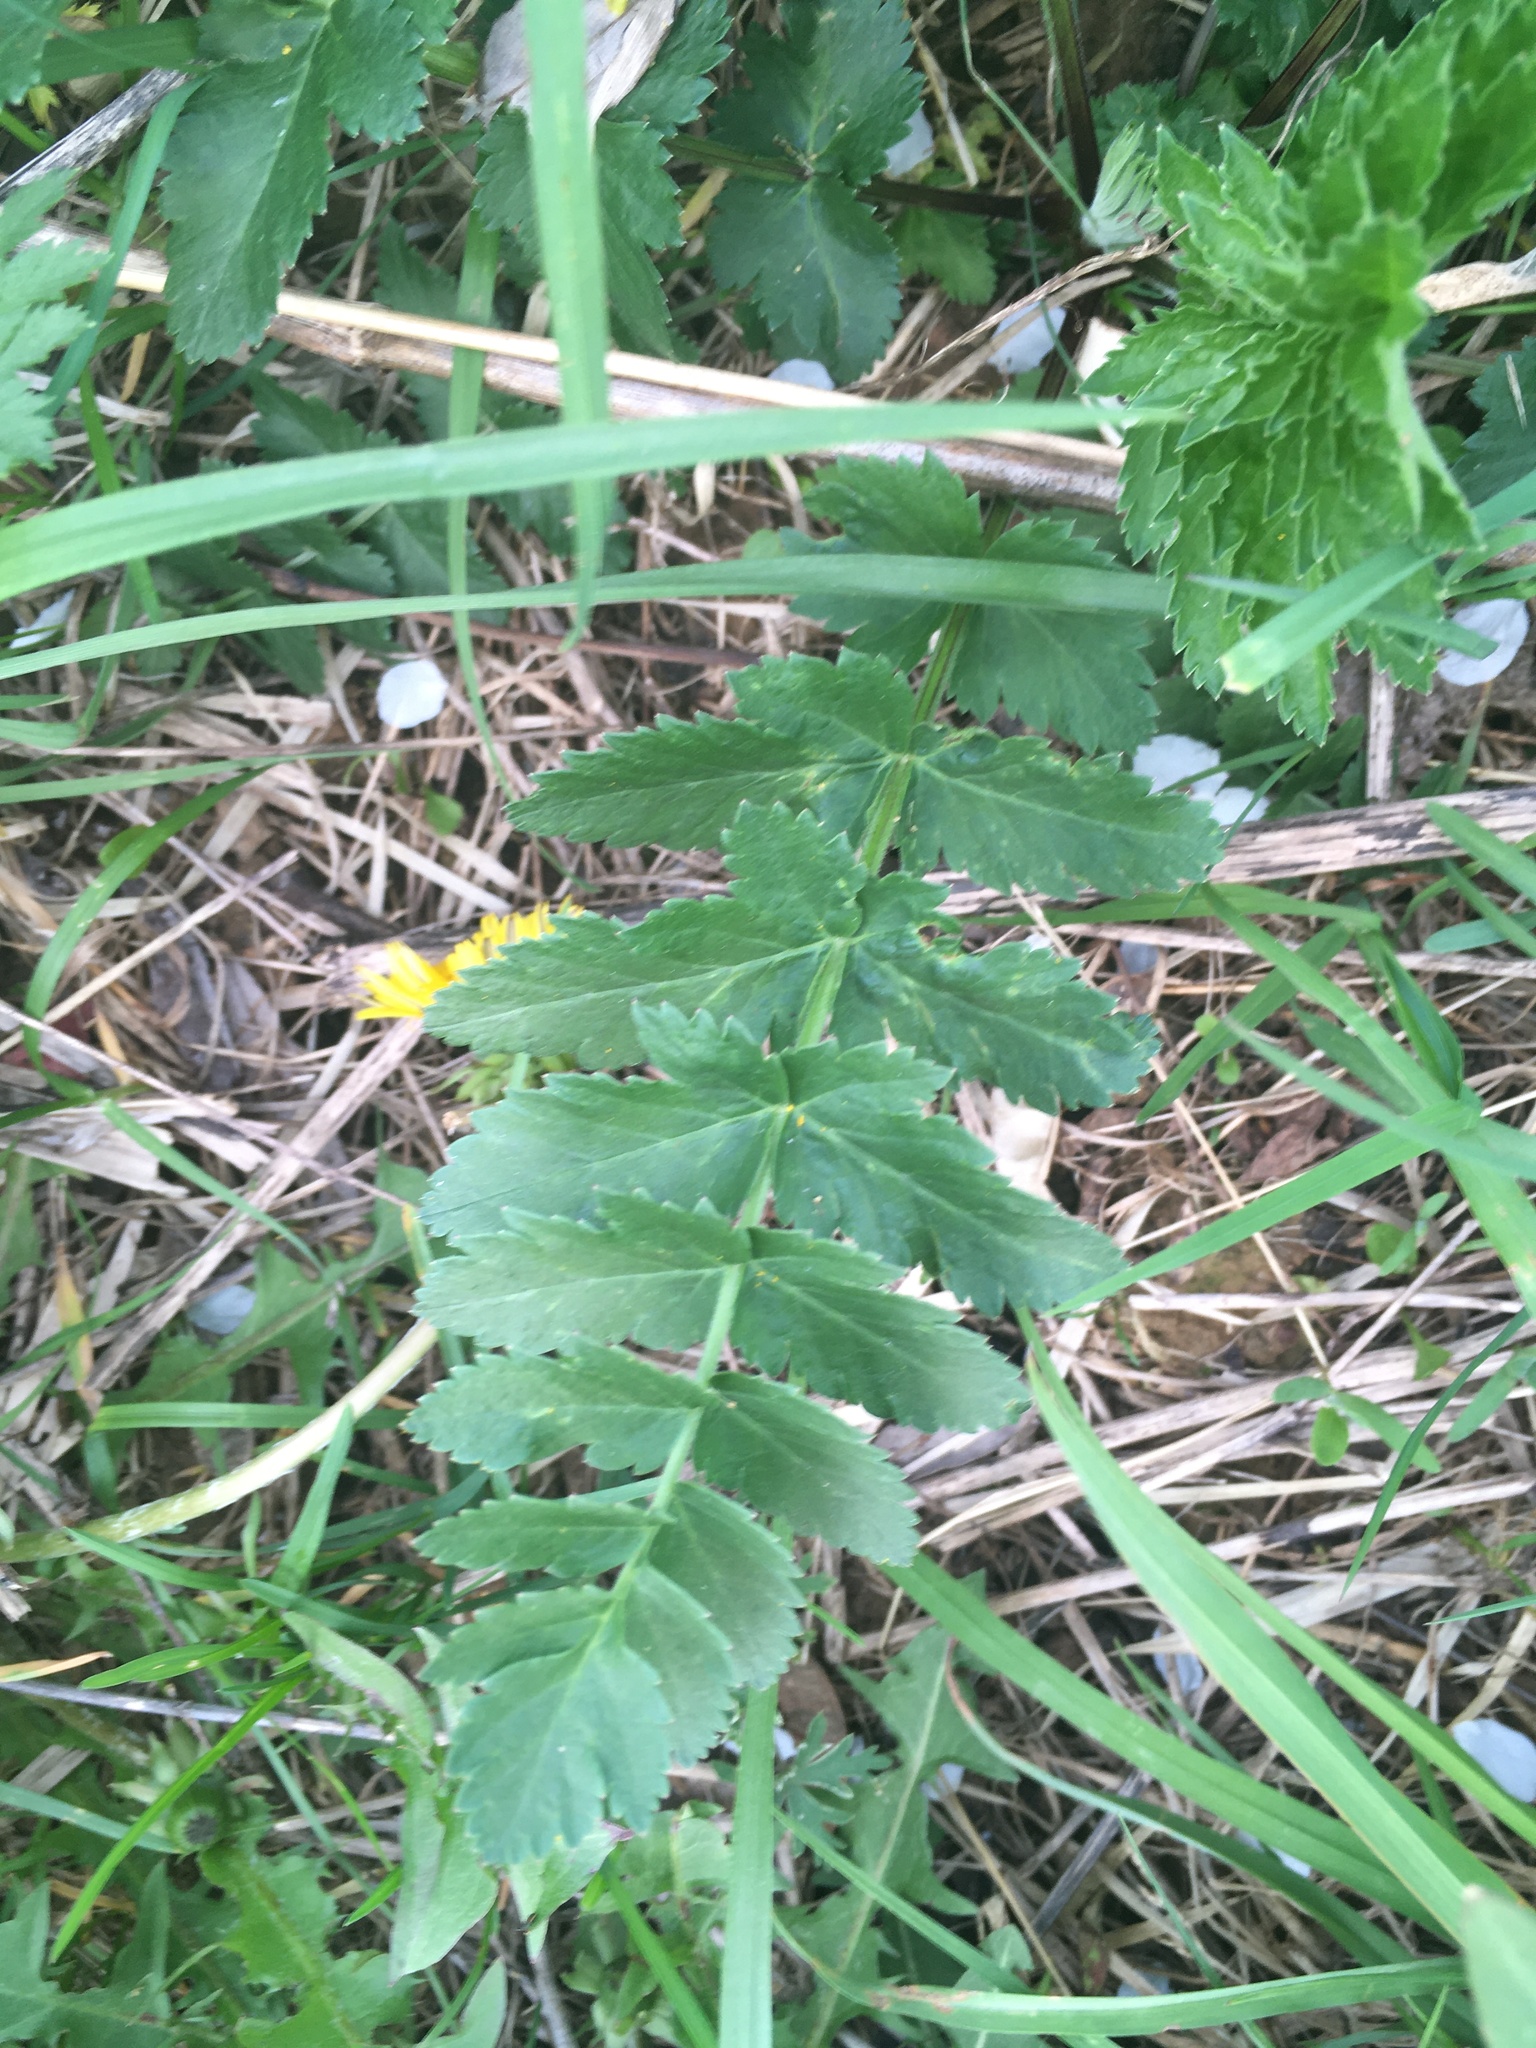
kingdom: Plantae
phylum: Tracheophyta
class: Magnoliopsida
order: Apiales
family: Apiaceae
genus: Pastinaca
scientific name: Pastinaca sativa
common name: Wild parsnip
